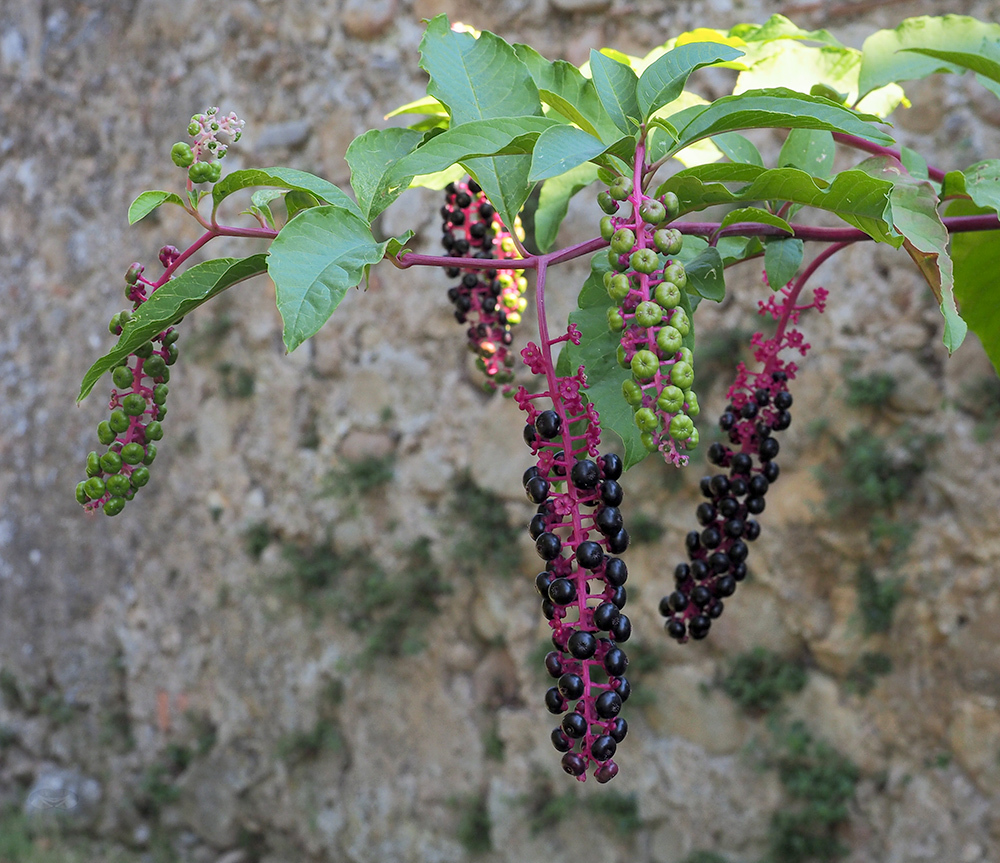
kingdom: Plantae
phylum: Tracheophyta
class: Magnoliopsida
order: Caryophyllales
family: Phytolaccaceae
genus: Phytolacca
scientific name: Phytolacca americana
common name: American pokeweed
